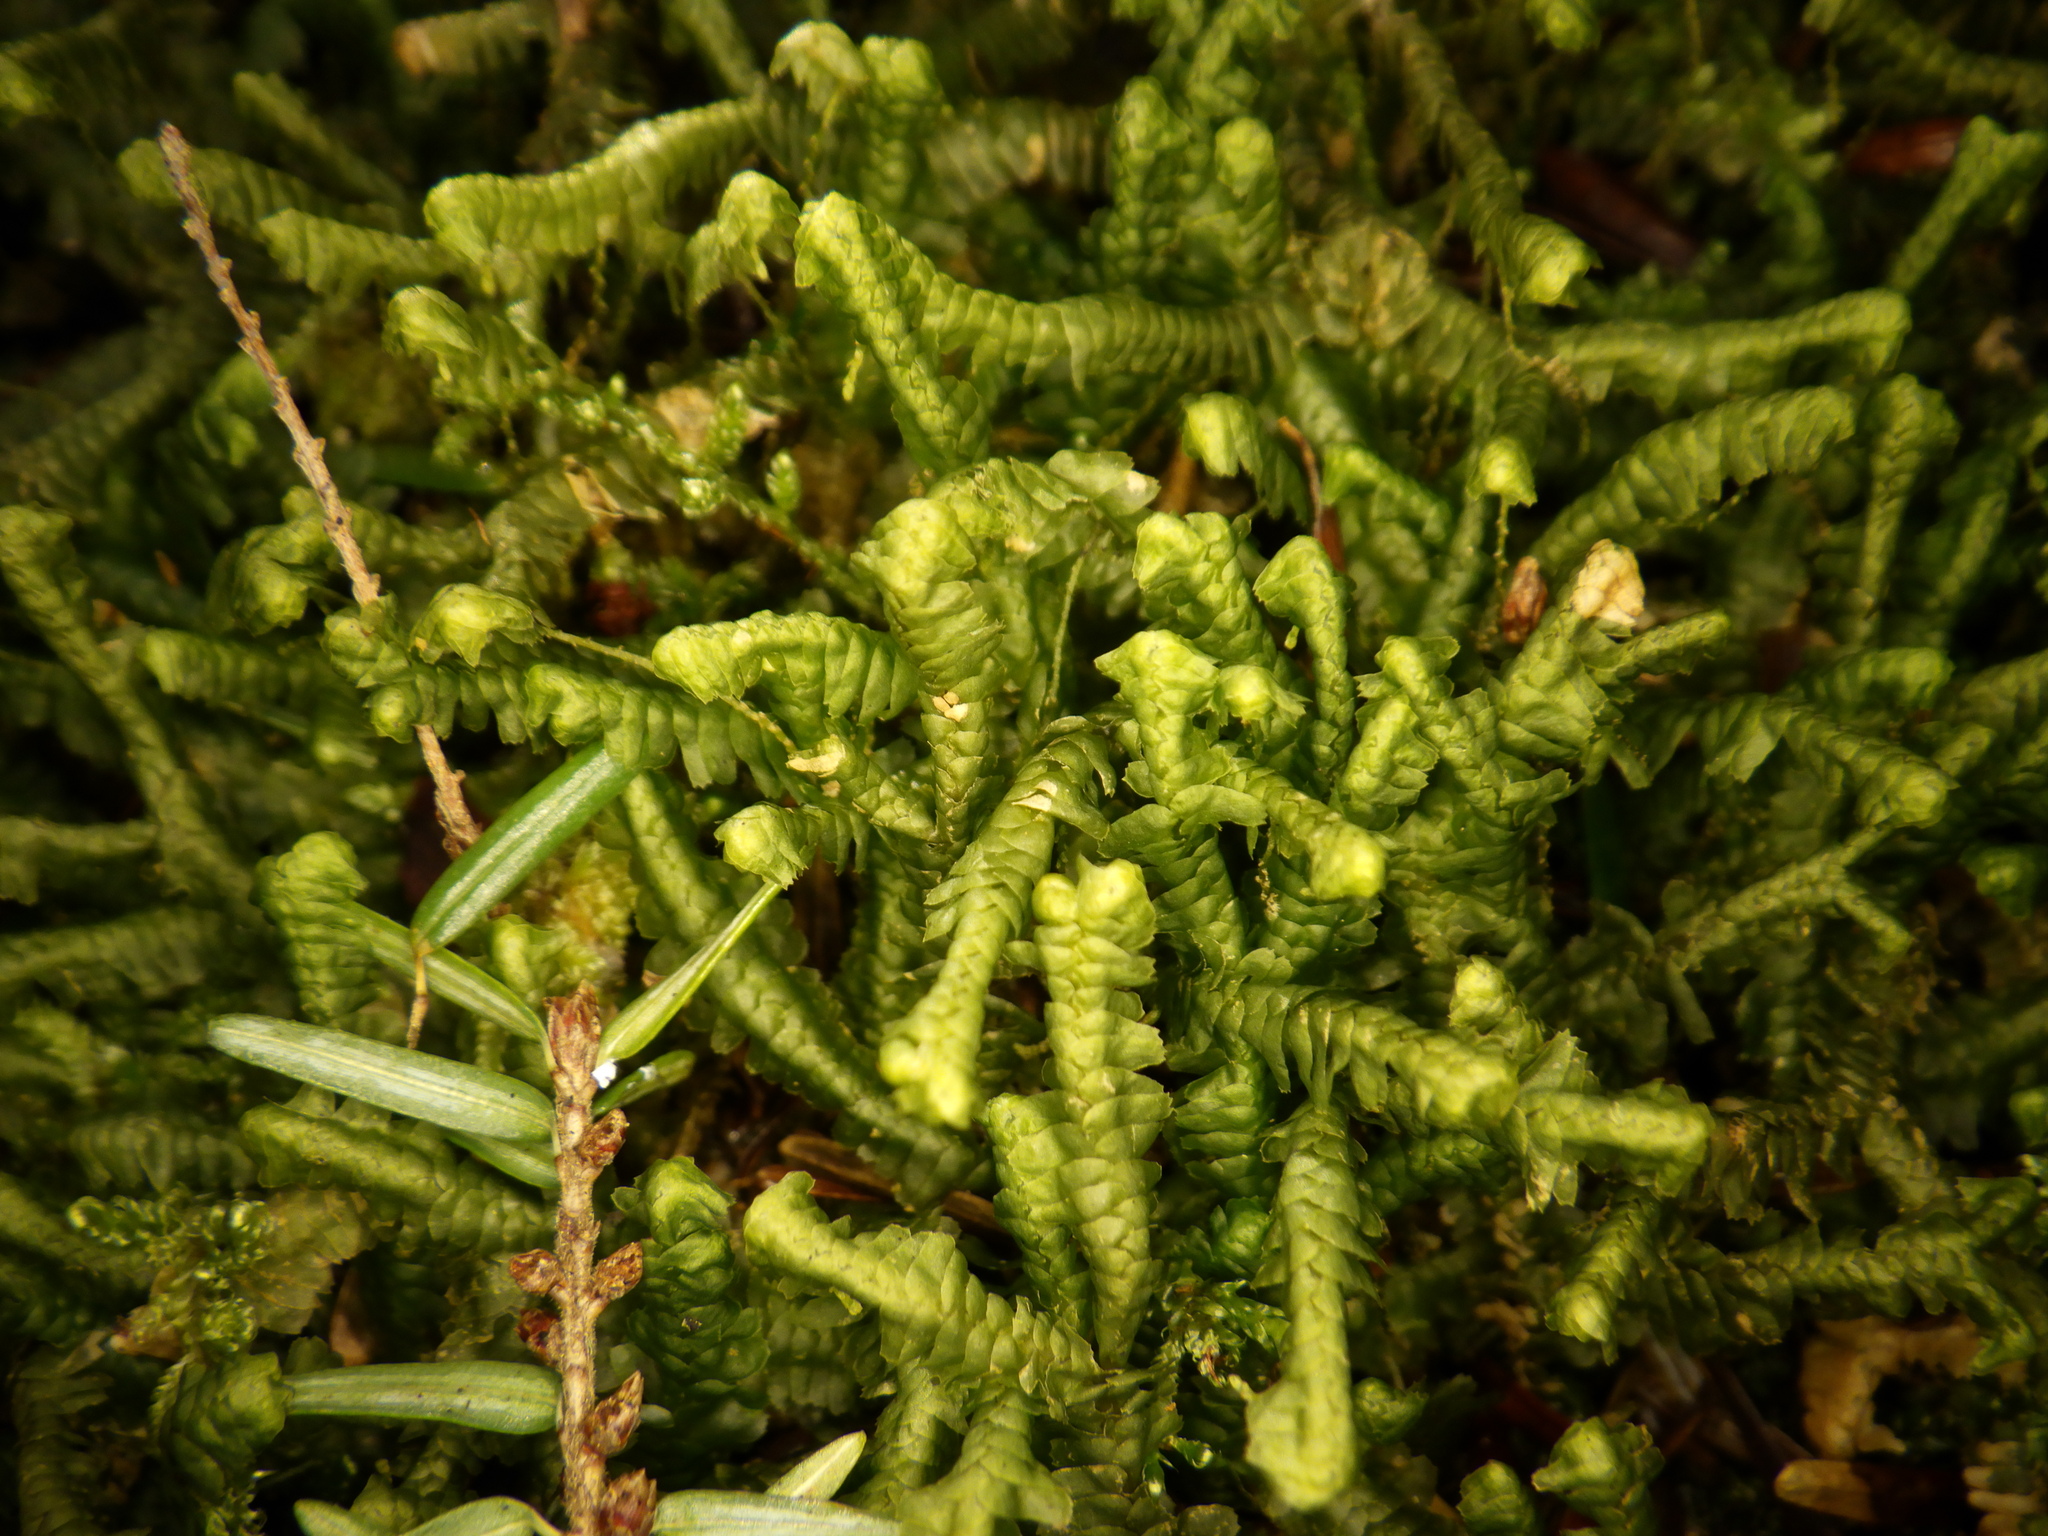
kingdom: Plantae
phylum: Marchantiophyta
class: Jungermanniopsida
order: Jungermanniales
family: Lepidoziaceae
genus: Bazzania
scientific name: Bazzania trilobata
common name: Three-lobed whipwort
